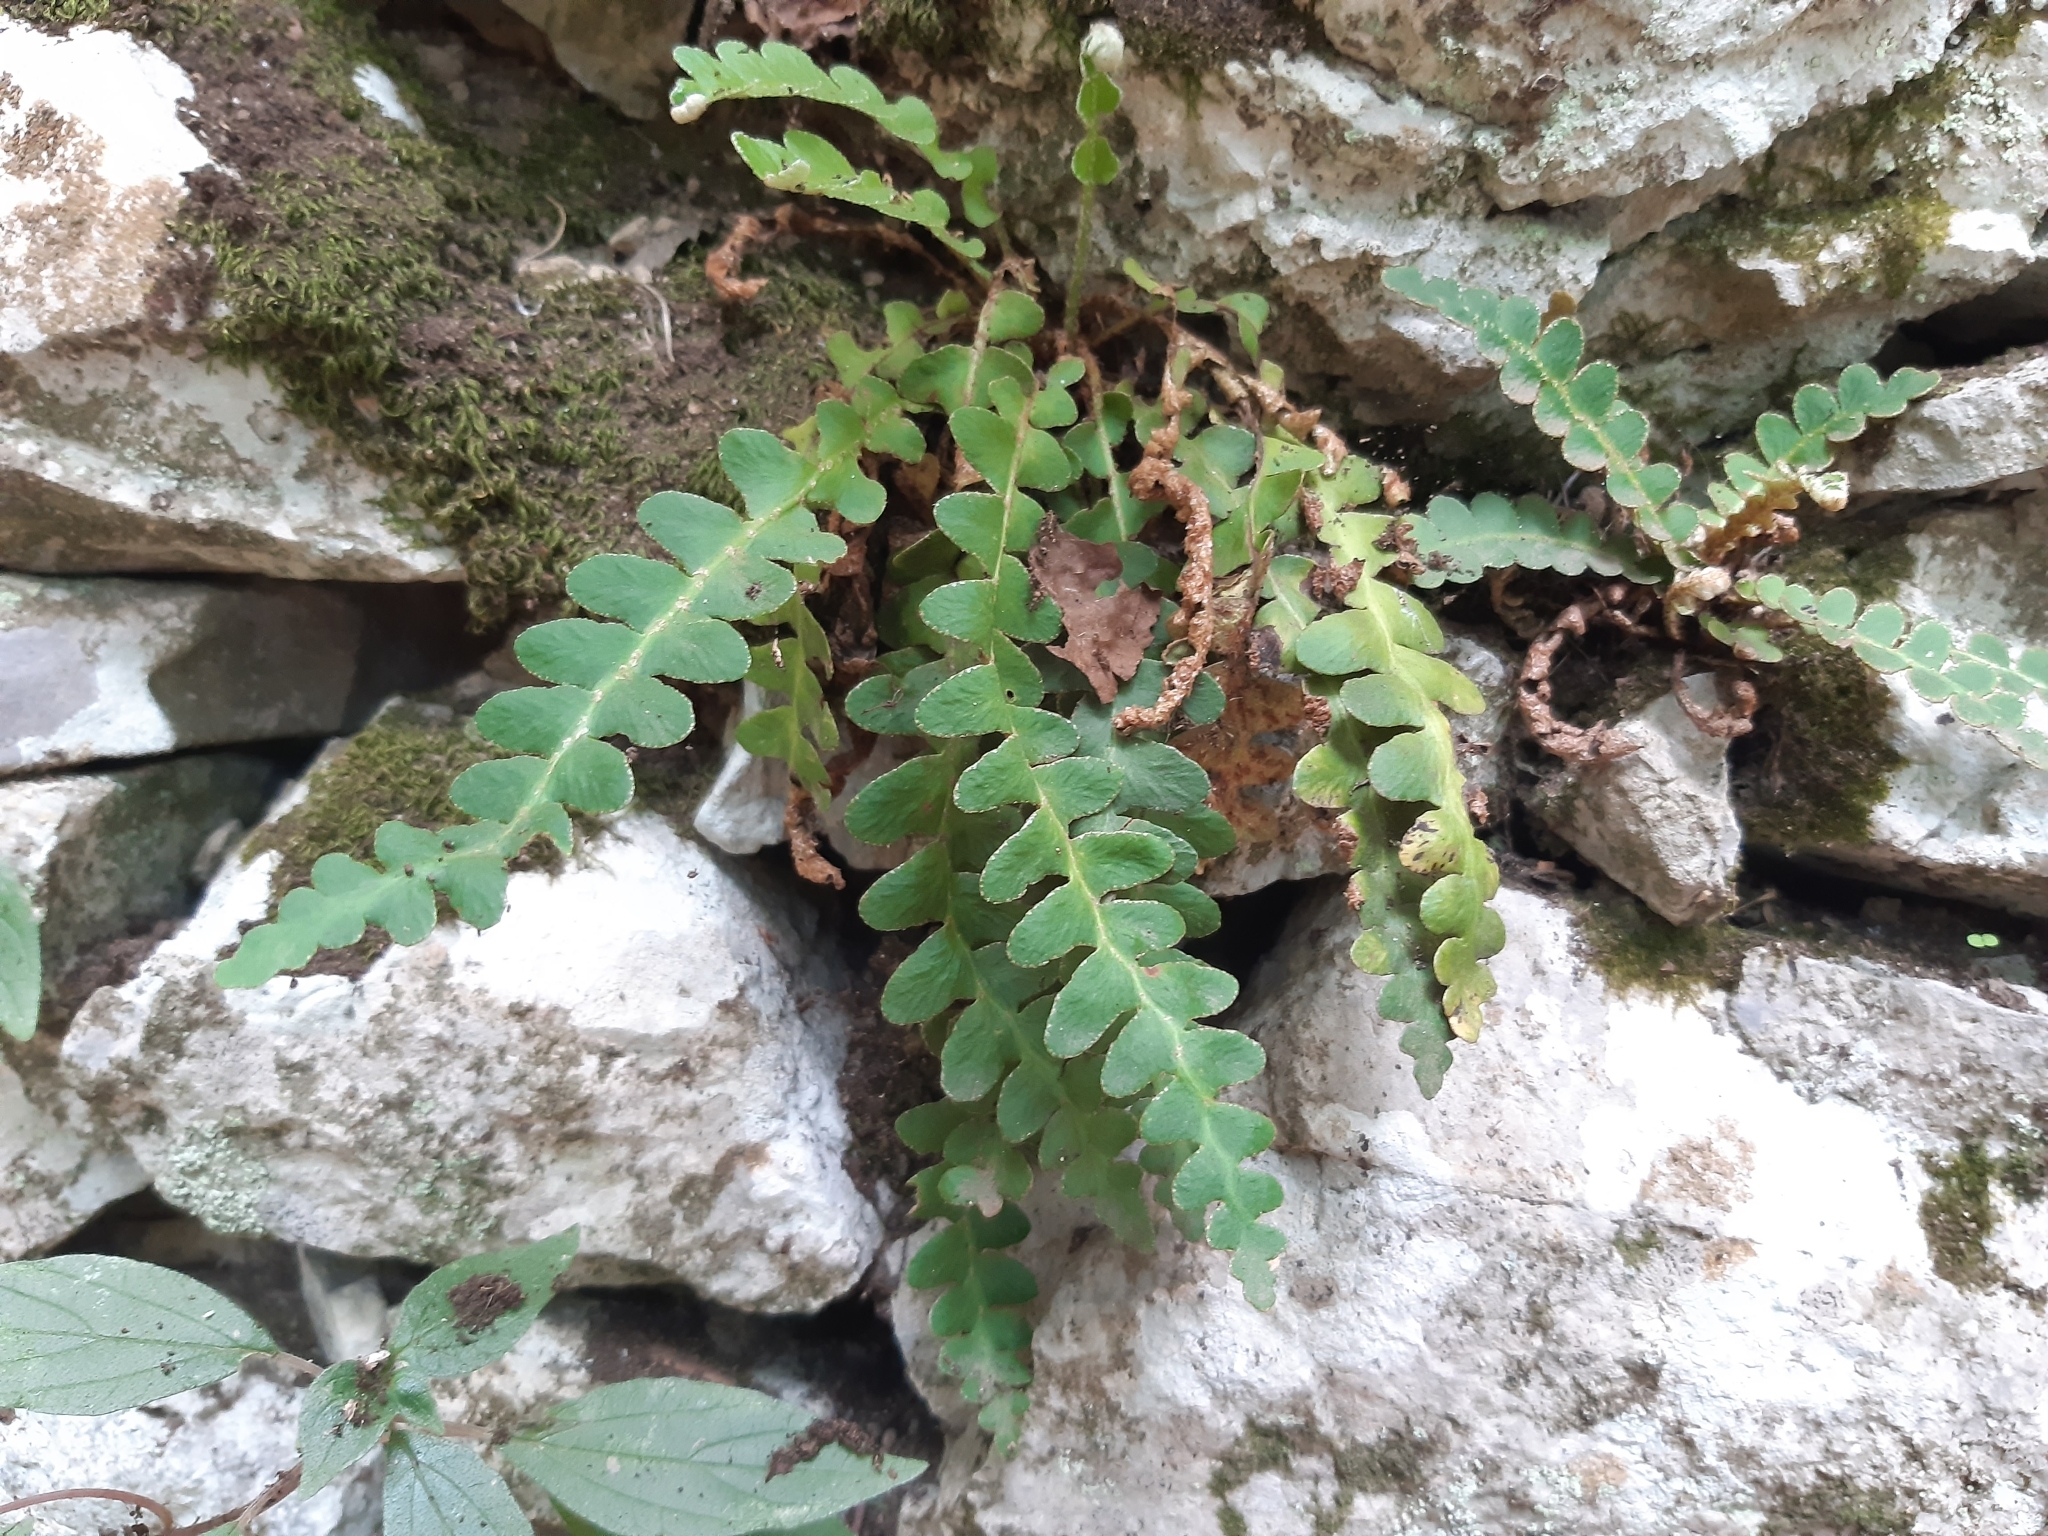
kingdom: Plantae
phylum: Tracheophyta
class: Polypodiopsida
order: Polypodiales
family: Aspleniaceae
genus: Asplenium
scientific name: Asplenium ceterach
